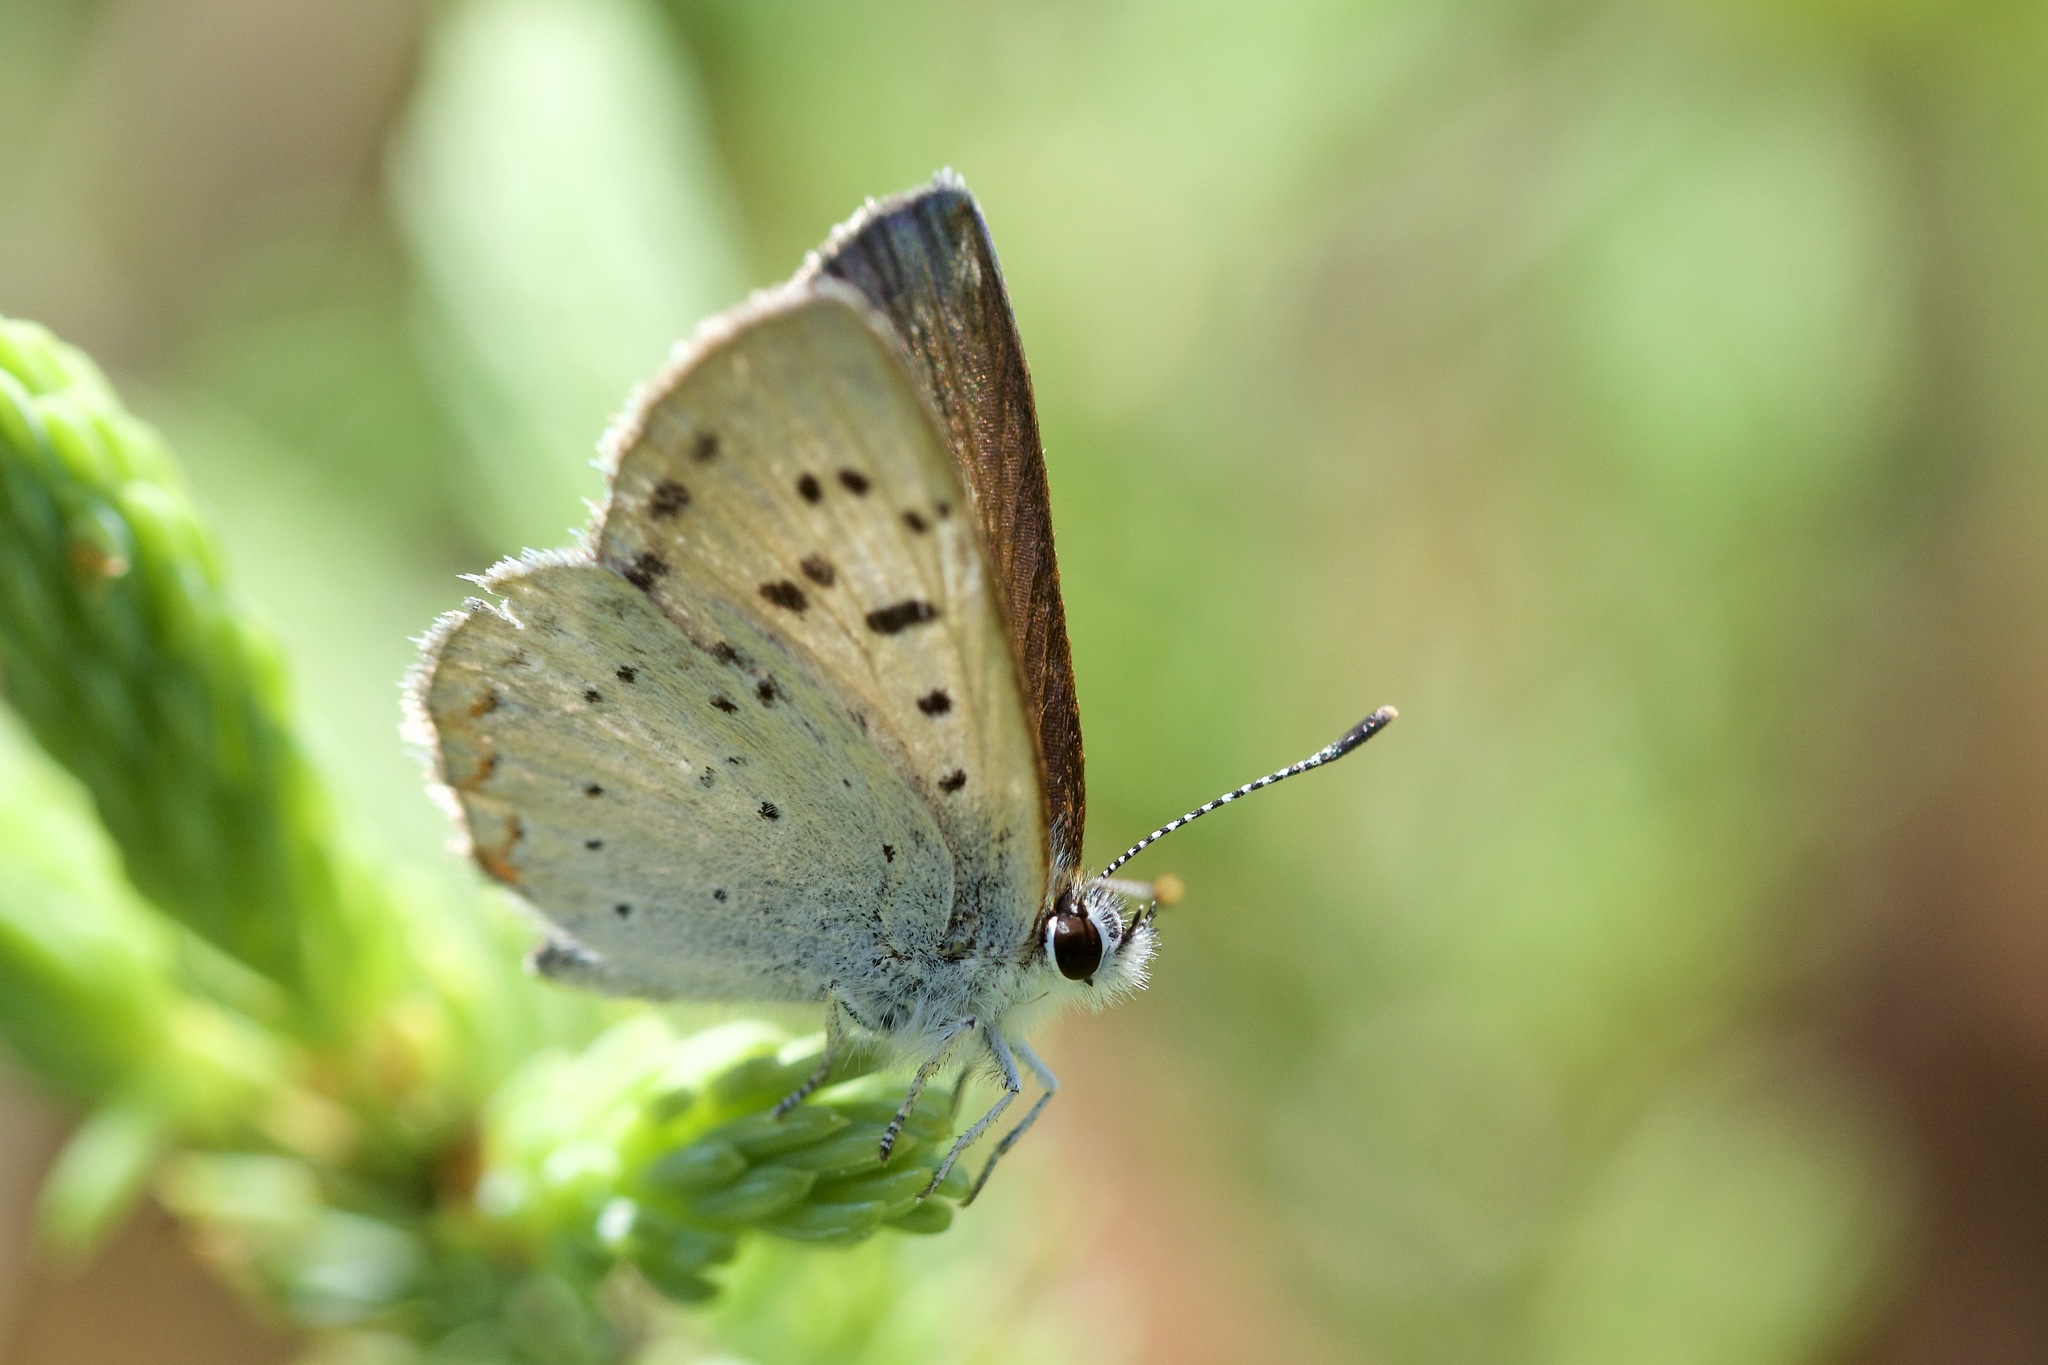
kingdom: Animalia
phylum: Arthropoda
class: Insecta
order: Lepidoptera
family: Lycaenidae
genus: Tharsalea
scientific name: Tharsalea epixanthe
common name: Bog copper
